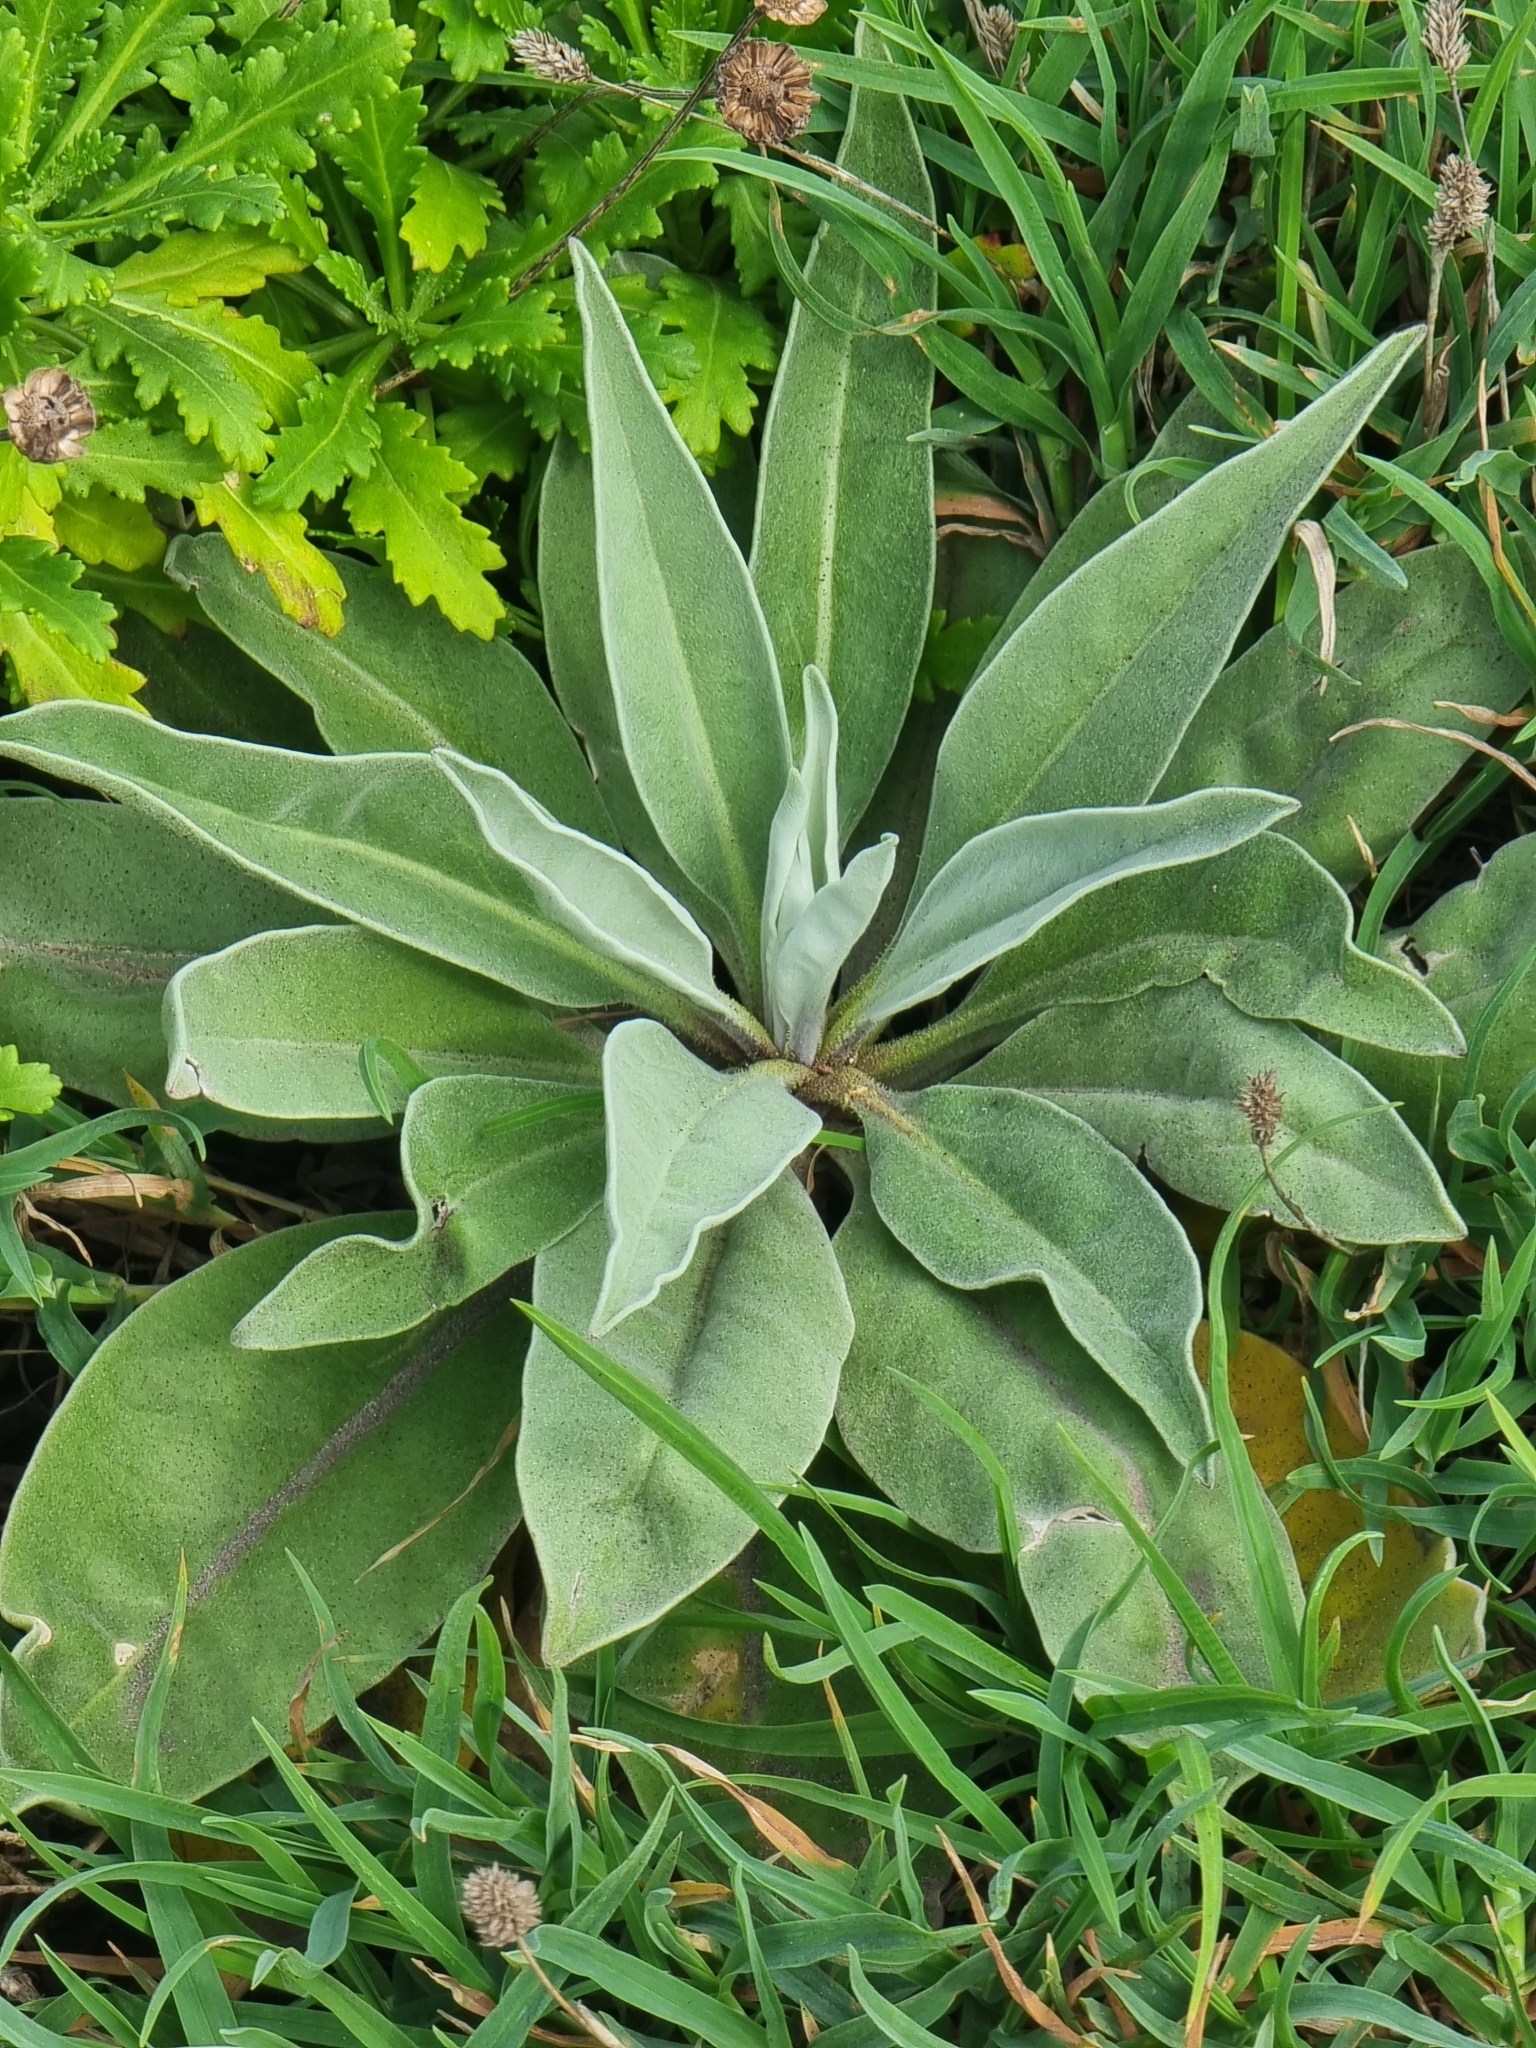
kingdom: Plantae
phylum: Tracheophyta
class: Magnoliopsida
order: Brassicales
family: Brassicaceae
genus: Matthiola
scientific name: Matthiola maderensis
